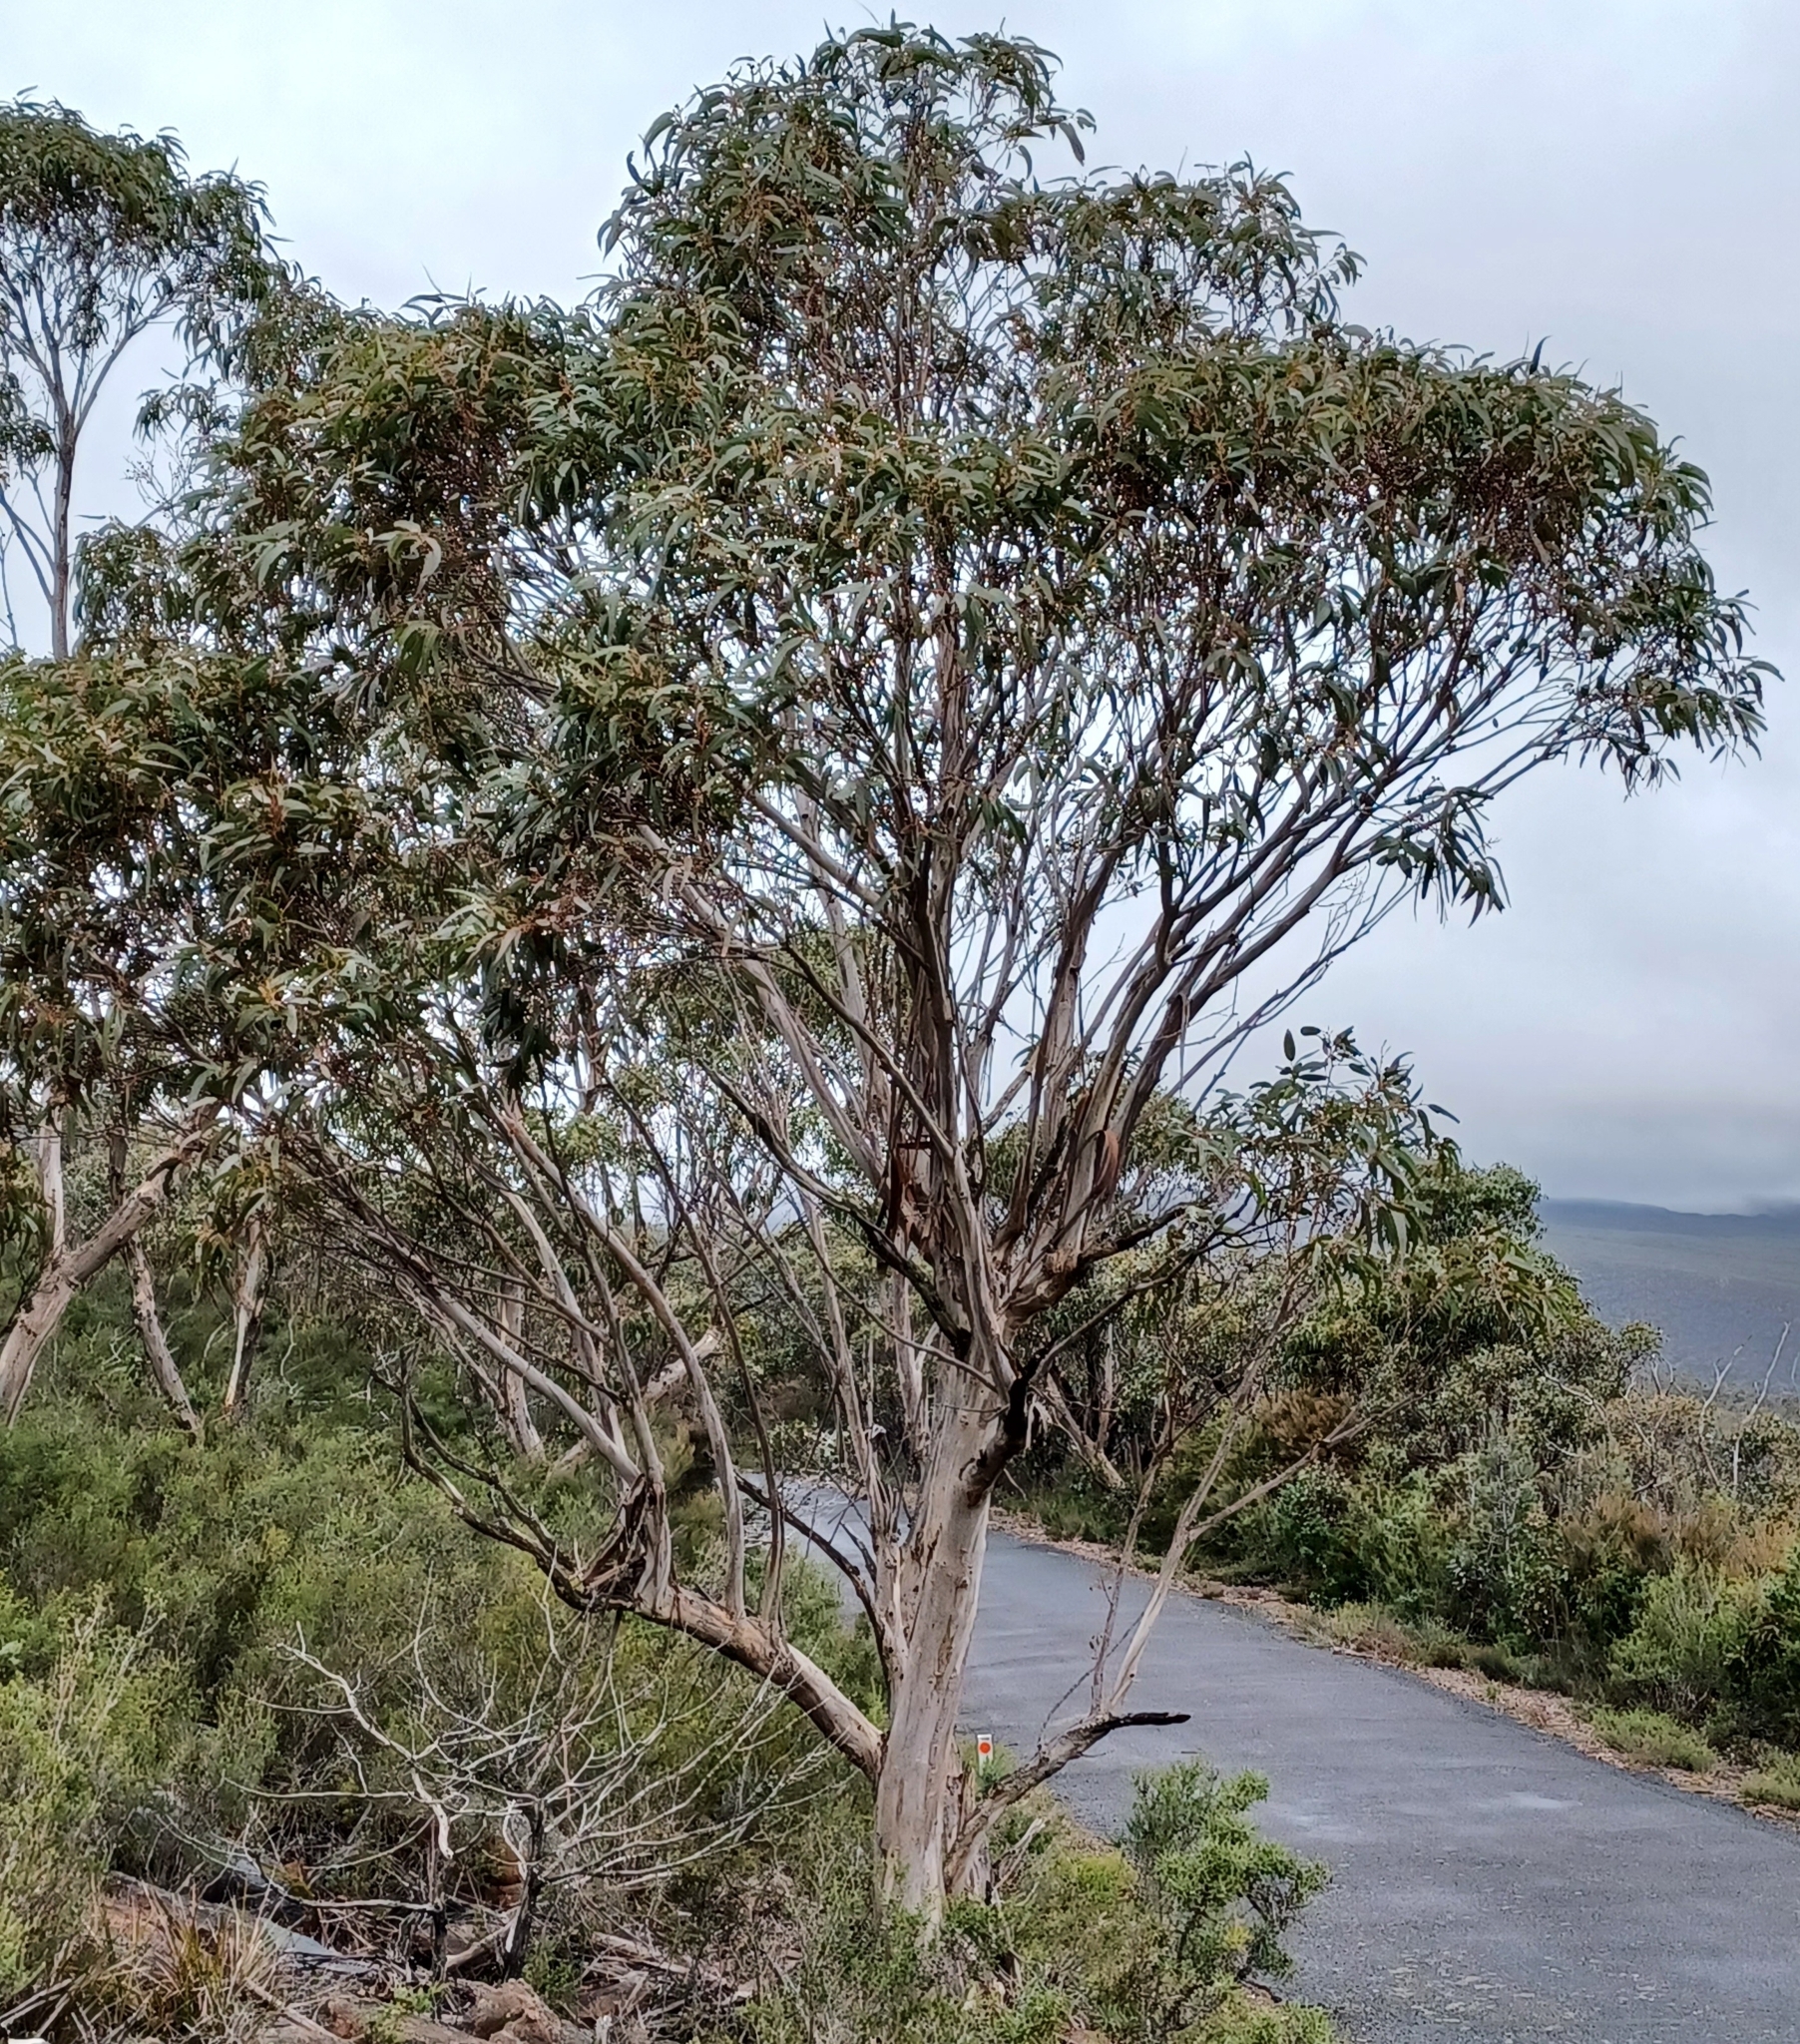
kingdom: Plantae
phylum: Tracheophyta
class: Magnoliopsida
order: Myrtales
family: Myrtaceae
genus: Eucalyptus
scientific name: Eucalyptus cypellocarpa
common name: Mountain grey gum
